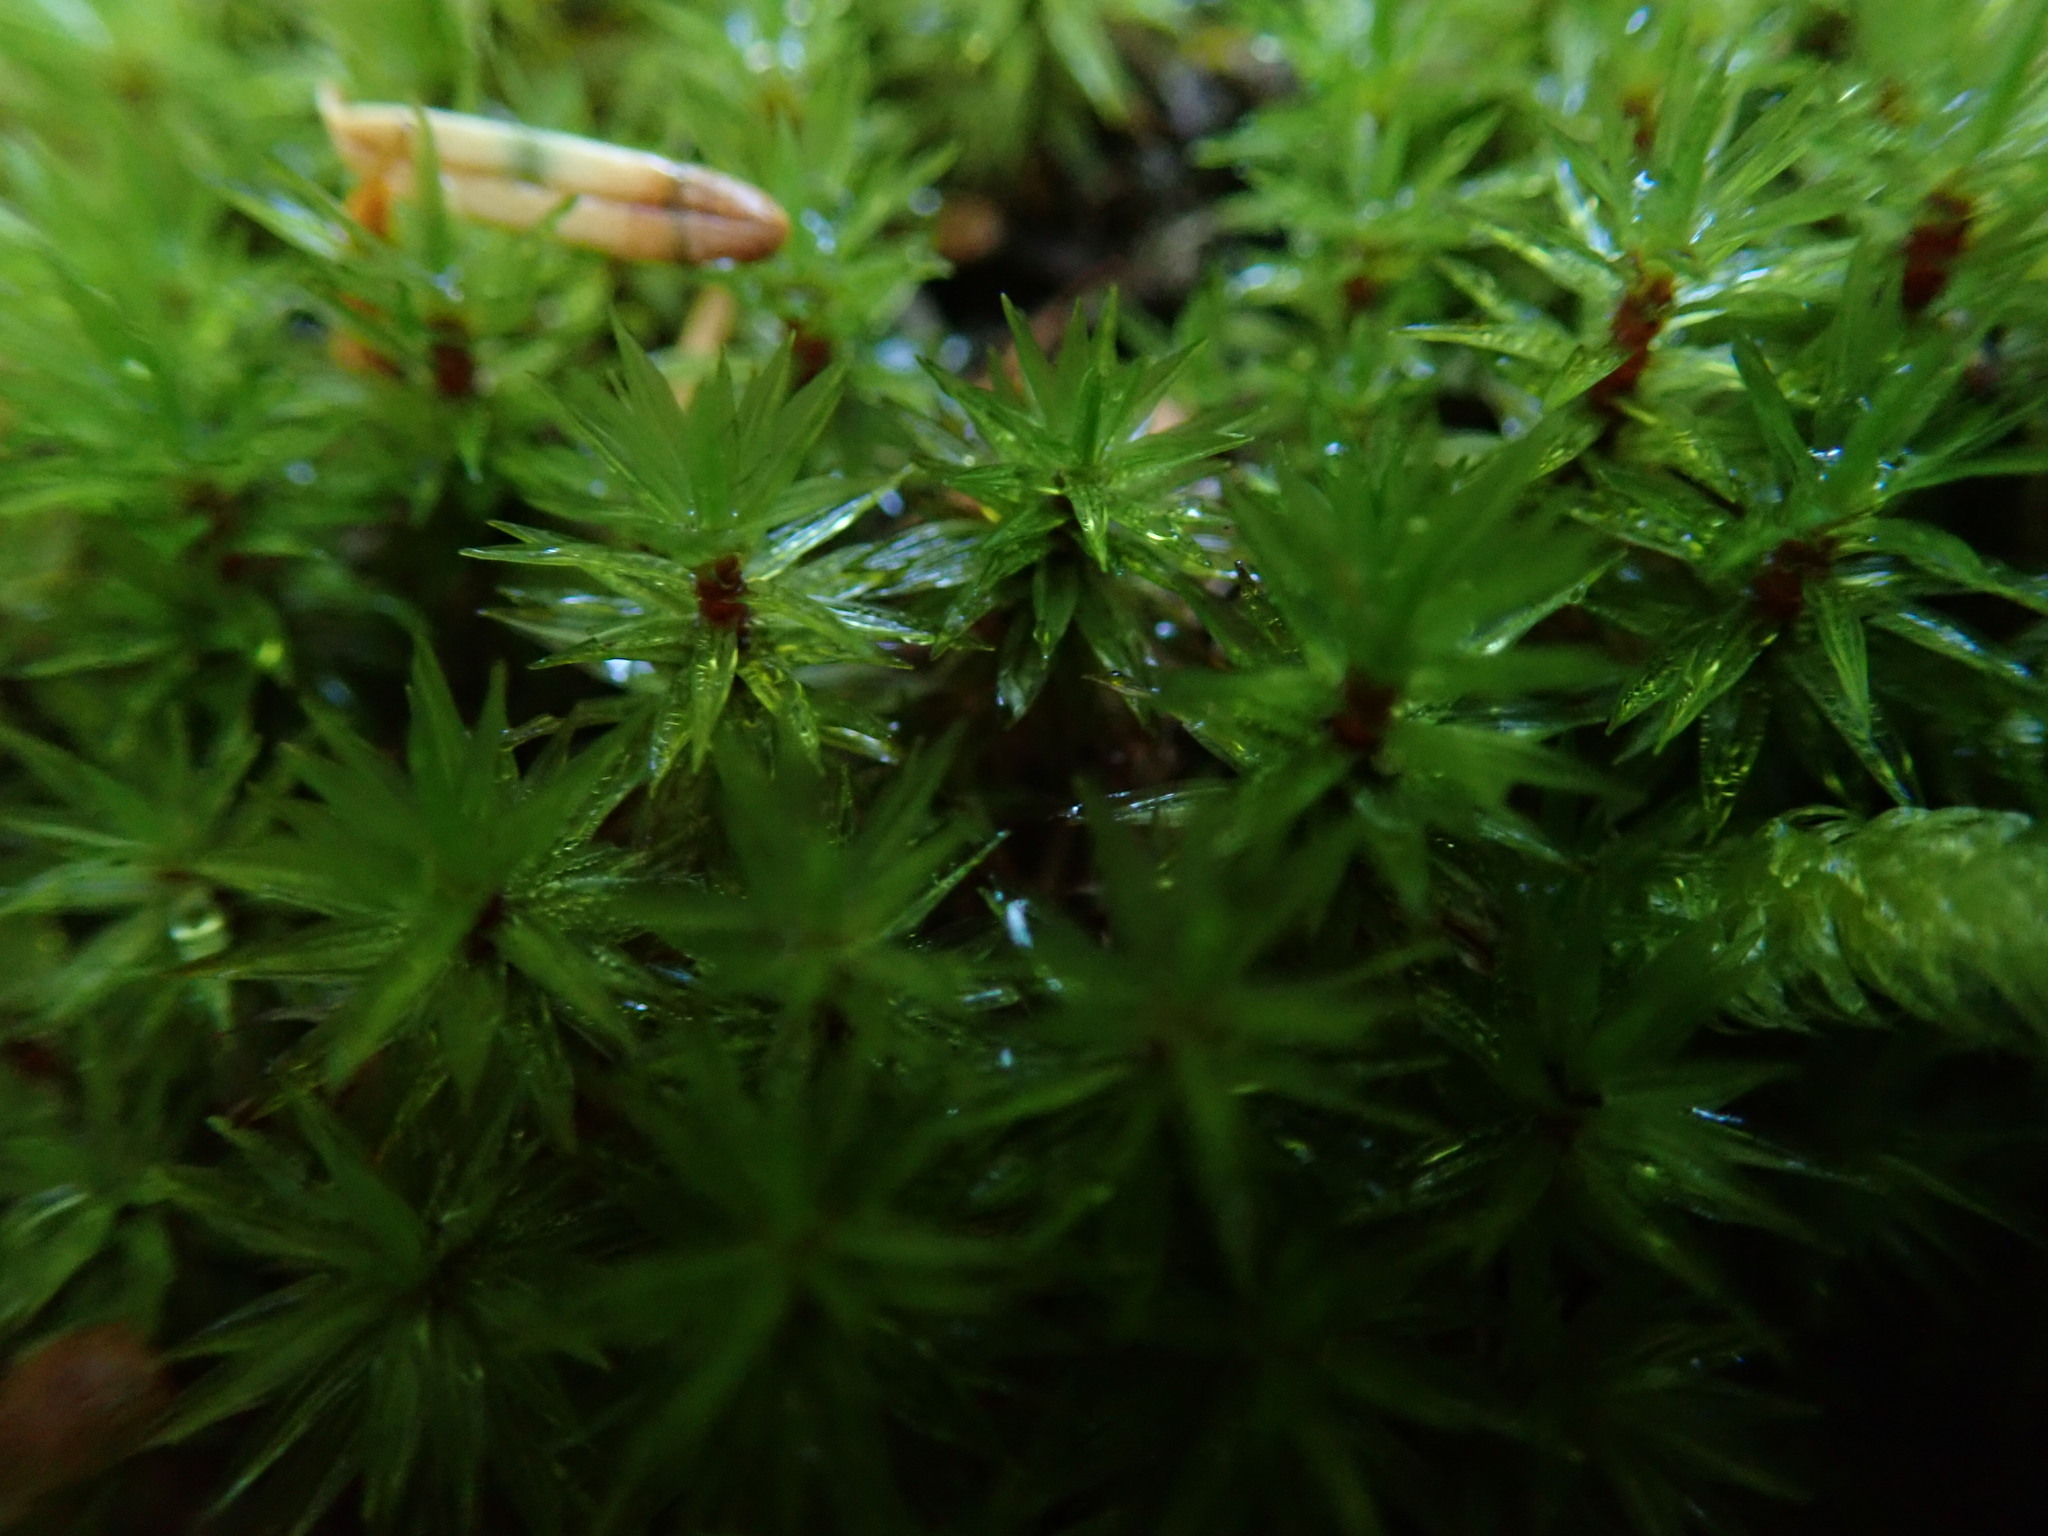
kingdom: Plantae
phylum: Bryophyta
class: Bryopsida
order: Timmiales
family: Timmiaceae
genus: Timmia
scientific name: Timmia austriaca
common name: Austrian timmia
